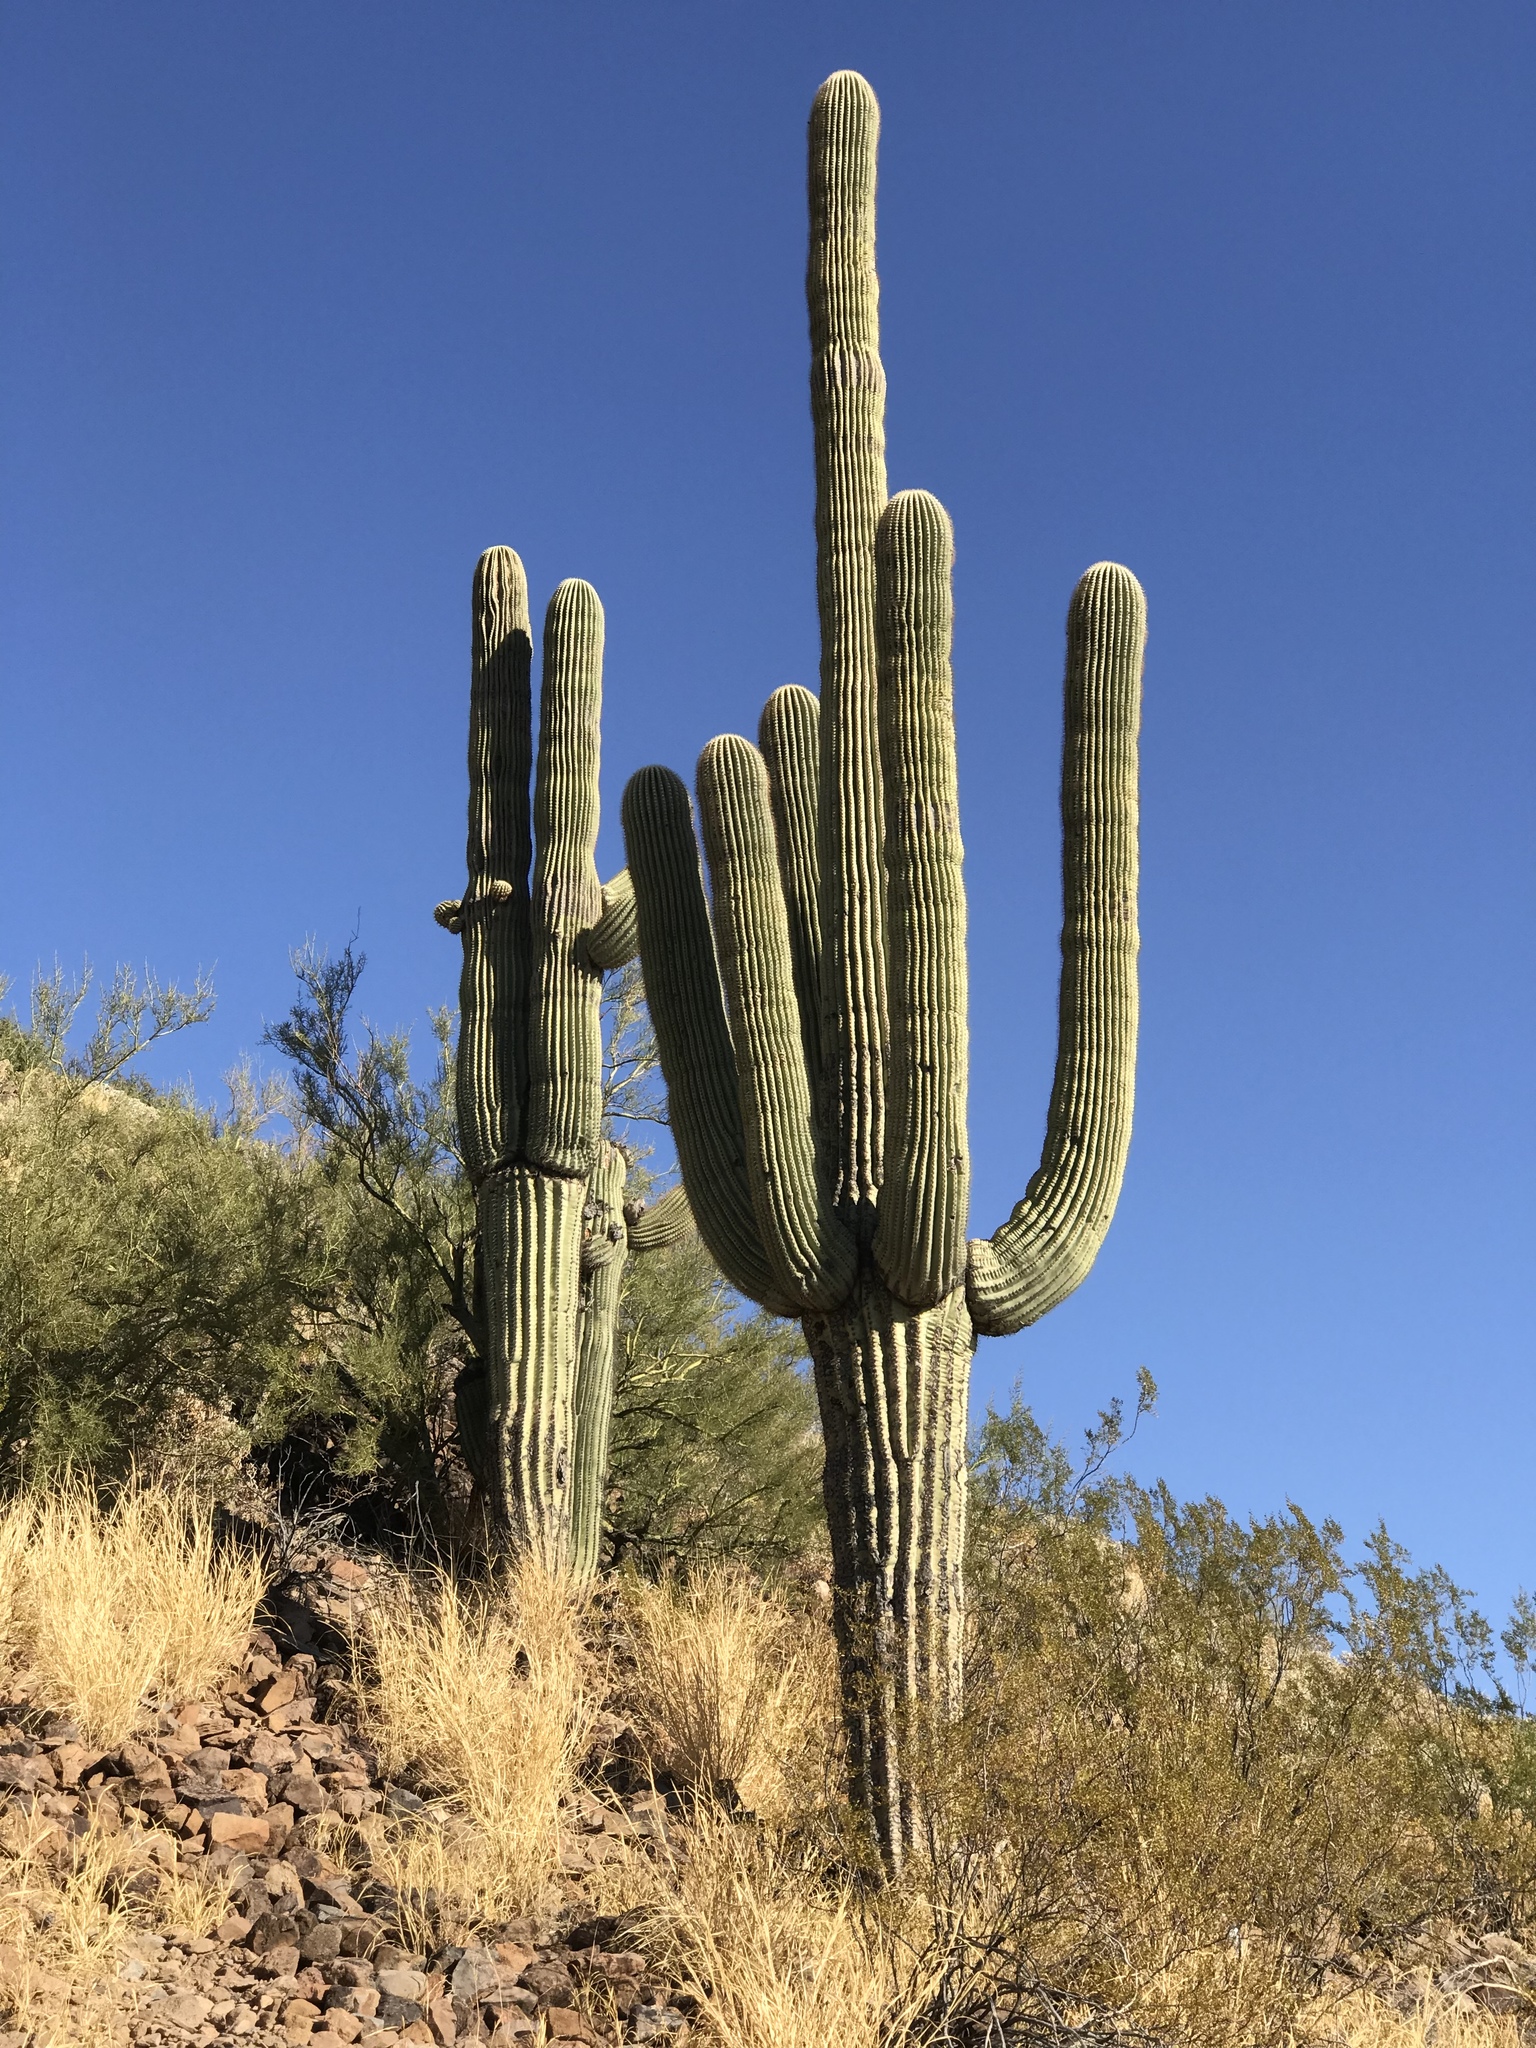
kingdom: Plantae
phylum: Tracheophyta
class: Magnoliopsida
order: Caryophyllales
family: Cactaceae
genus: Carnegiea
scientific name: Carnegiea gigantea
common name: Saguaro
